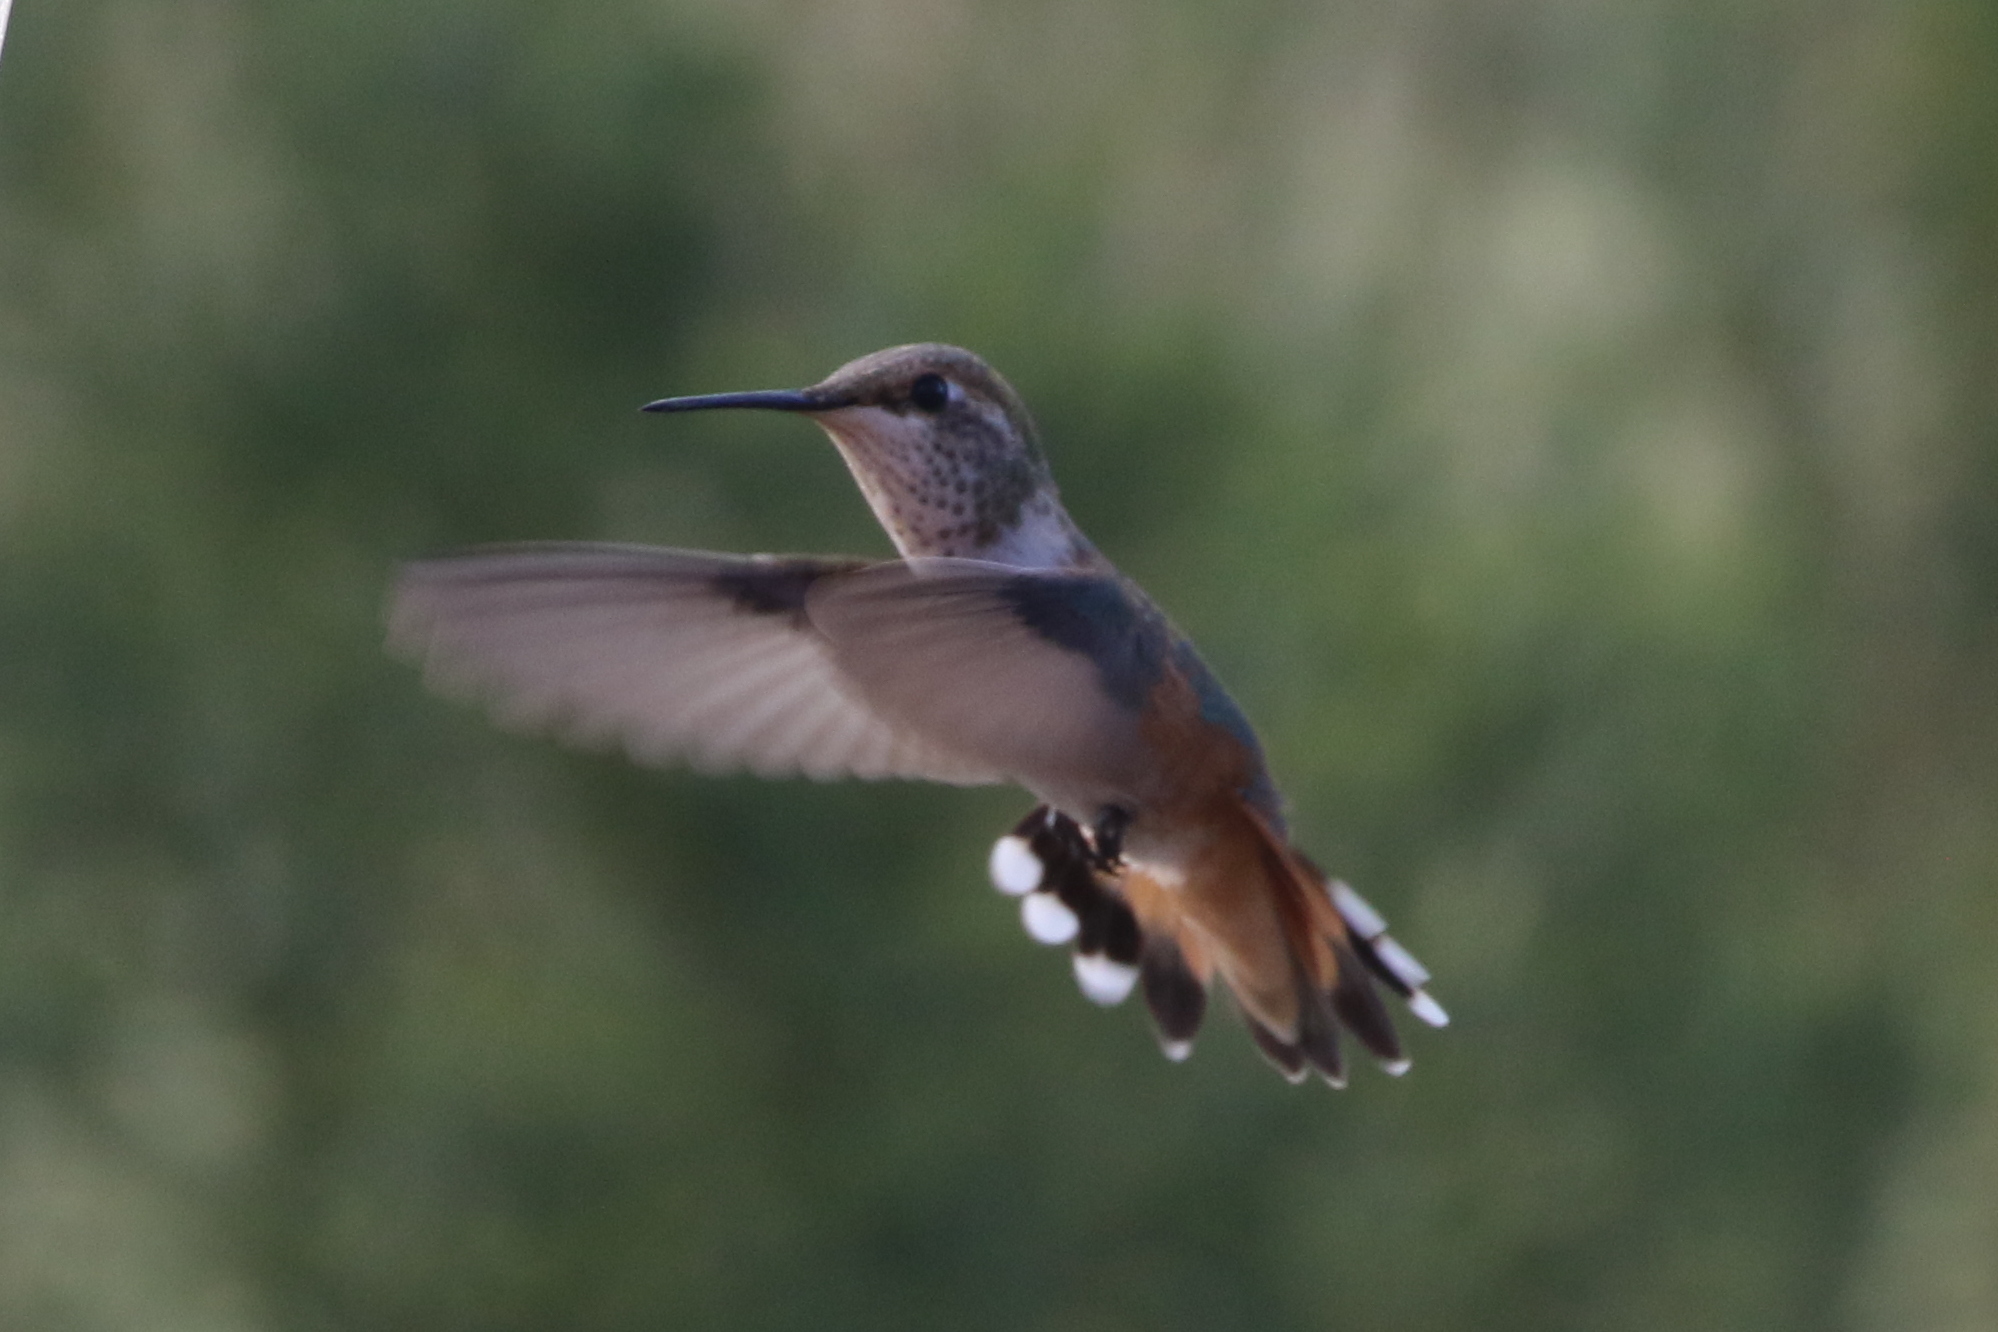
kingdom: Animalia
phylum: Chordata
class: Aves
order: Apodiformes
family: Trochilidae
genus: Selasphorus
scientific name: Selasphorus rufus
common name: Rufous hummingbird
